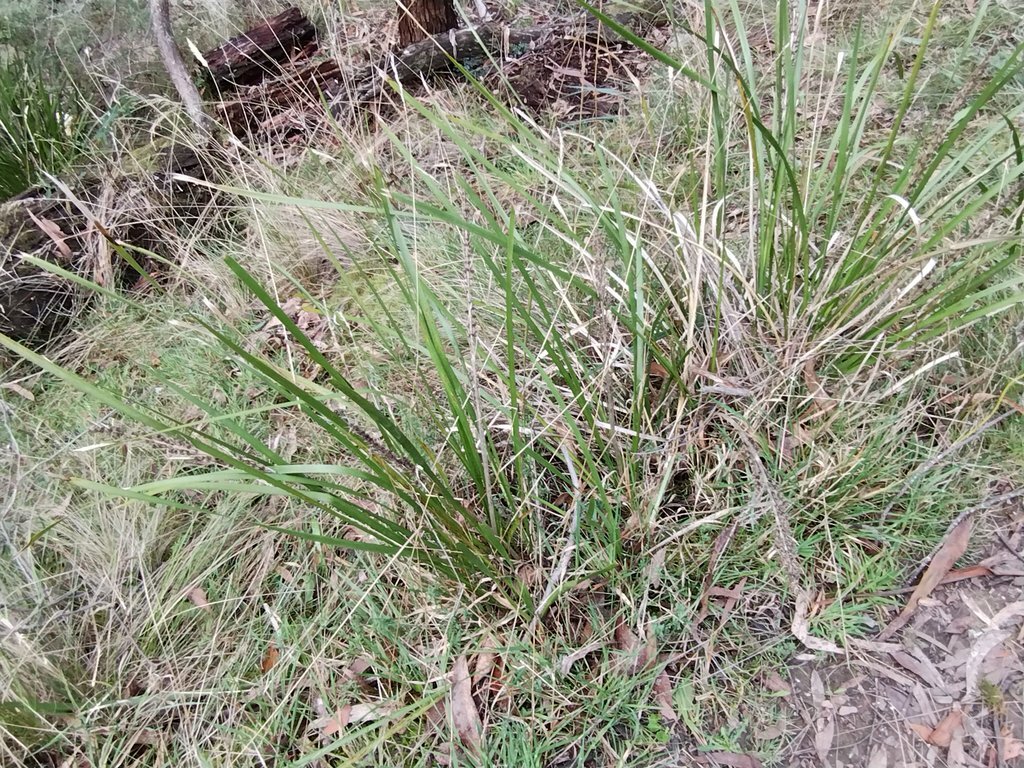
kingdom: Plantae
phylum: Tracheophyta
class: Liliopsida
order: Asparagales
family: Asparagaceae
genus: Lomandra
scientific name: Lomandra longifolia
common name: Longleaf mat-rush
